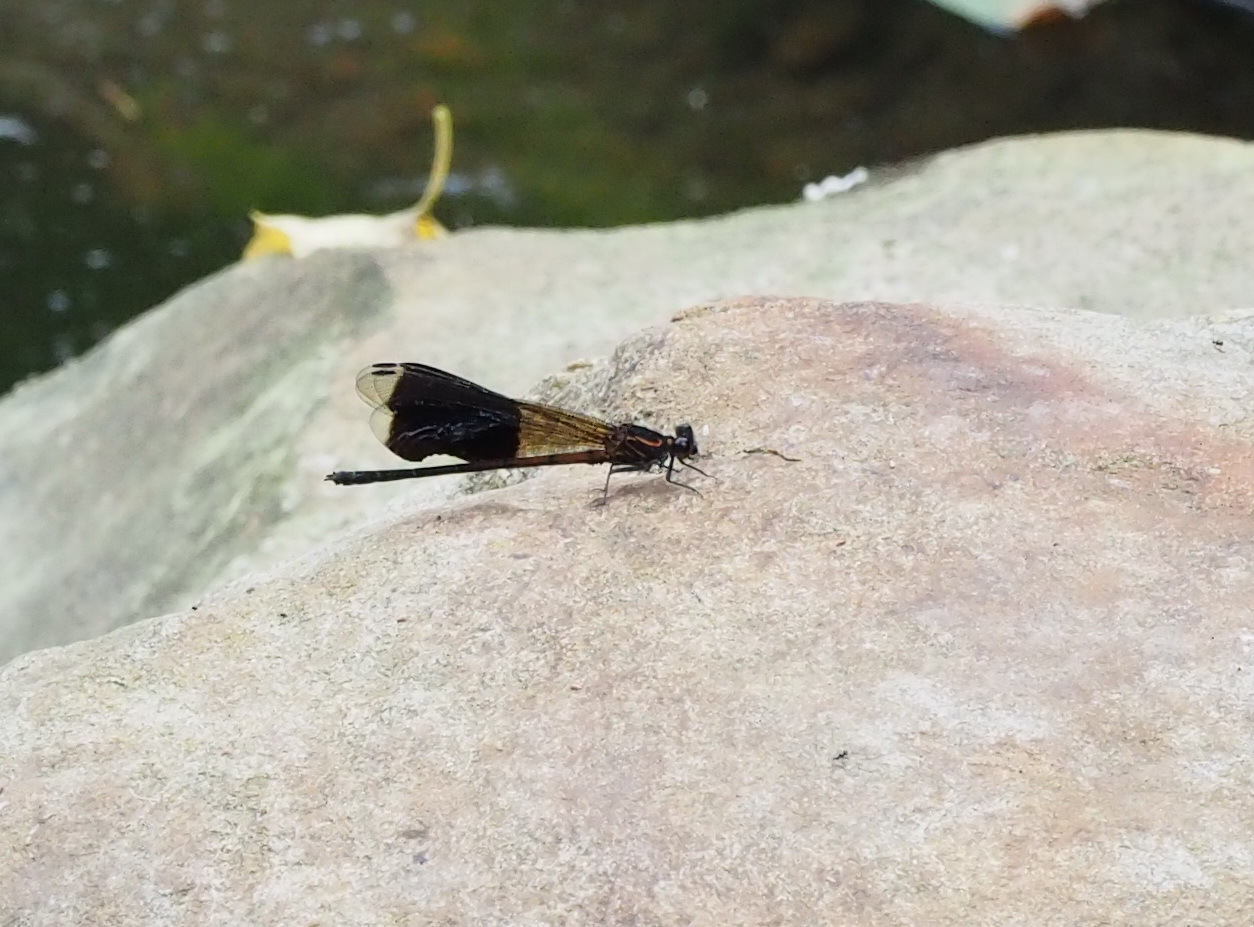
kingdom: Animalia
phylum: Arthropoda
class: Insecta
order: Odonata
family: Euphaeidae
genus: Euphaea
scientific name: Euphaea formosa
